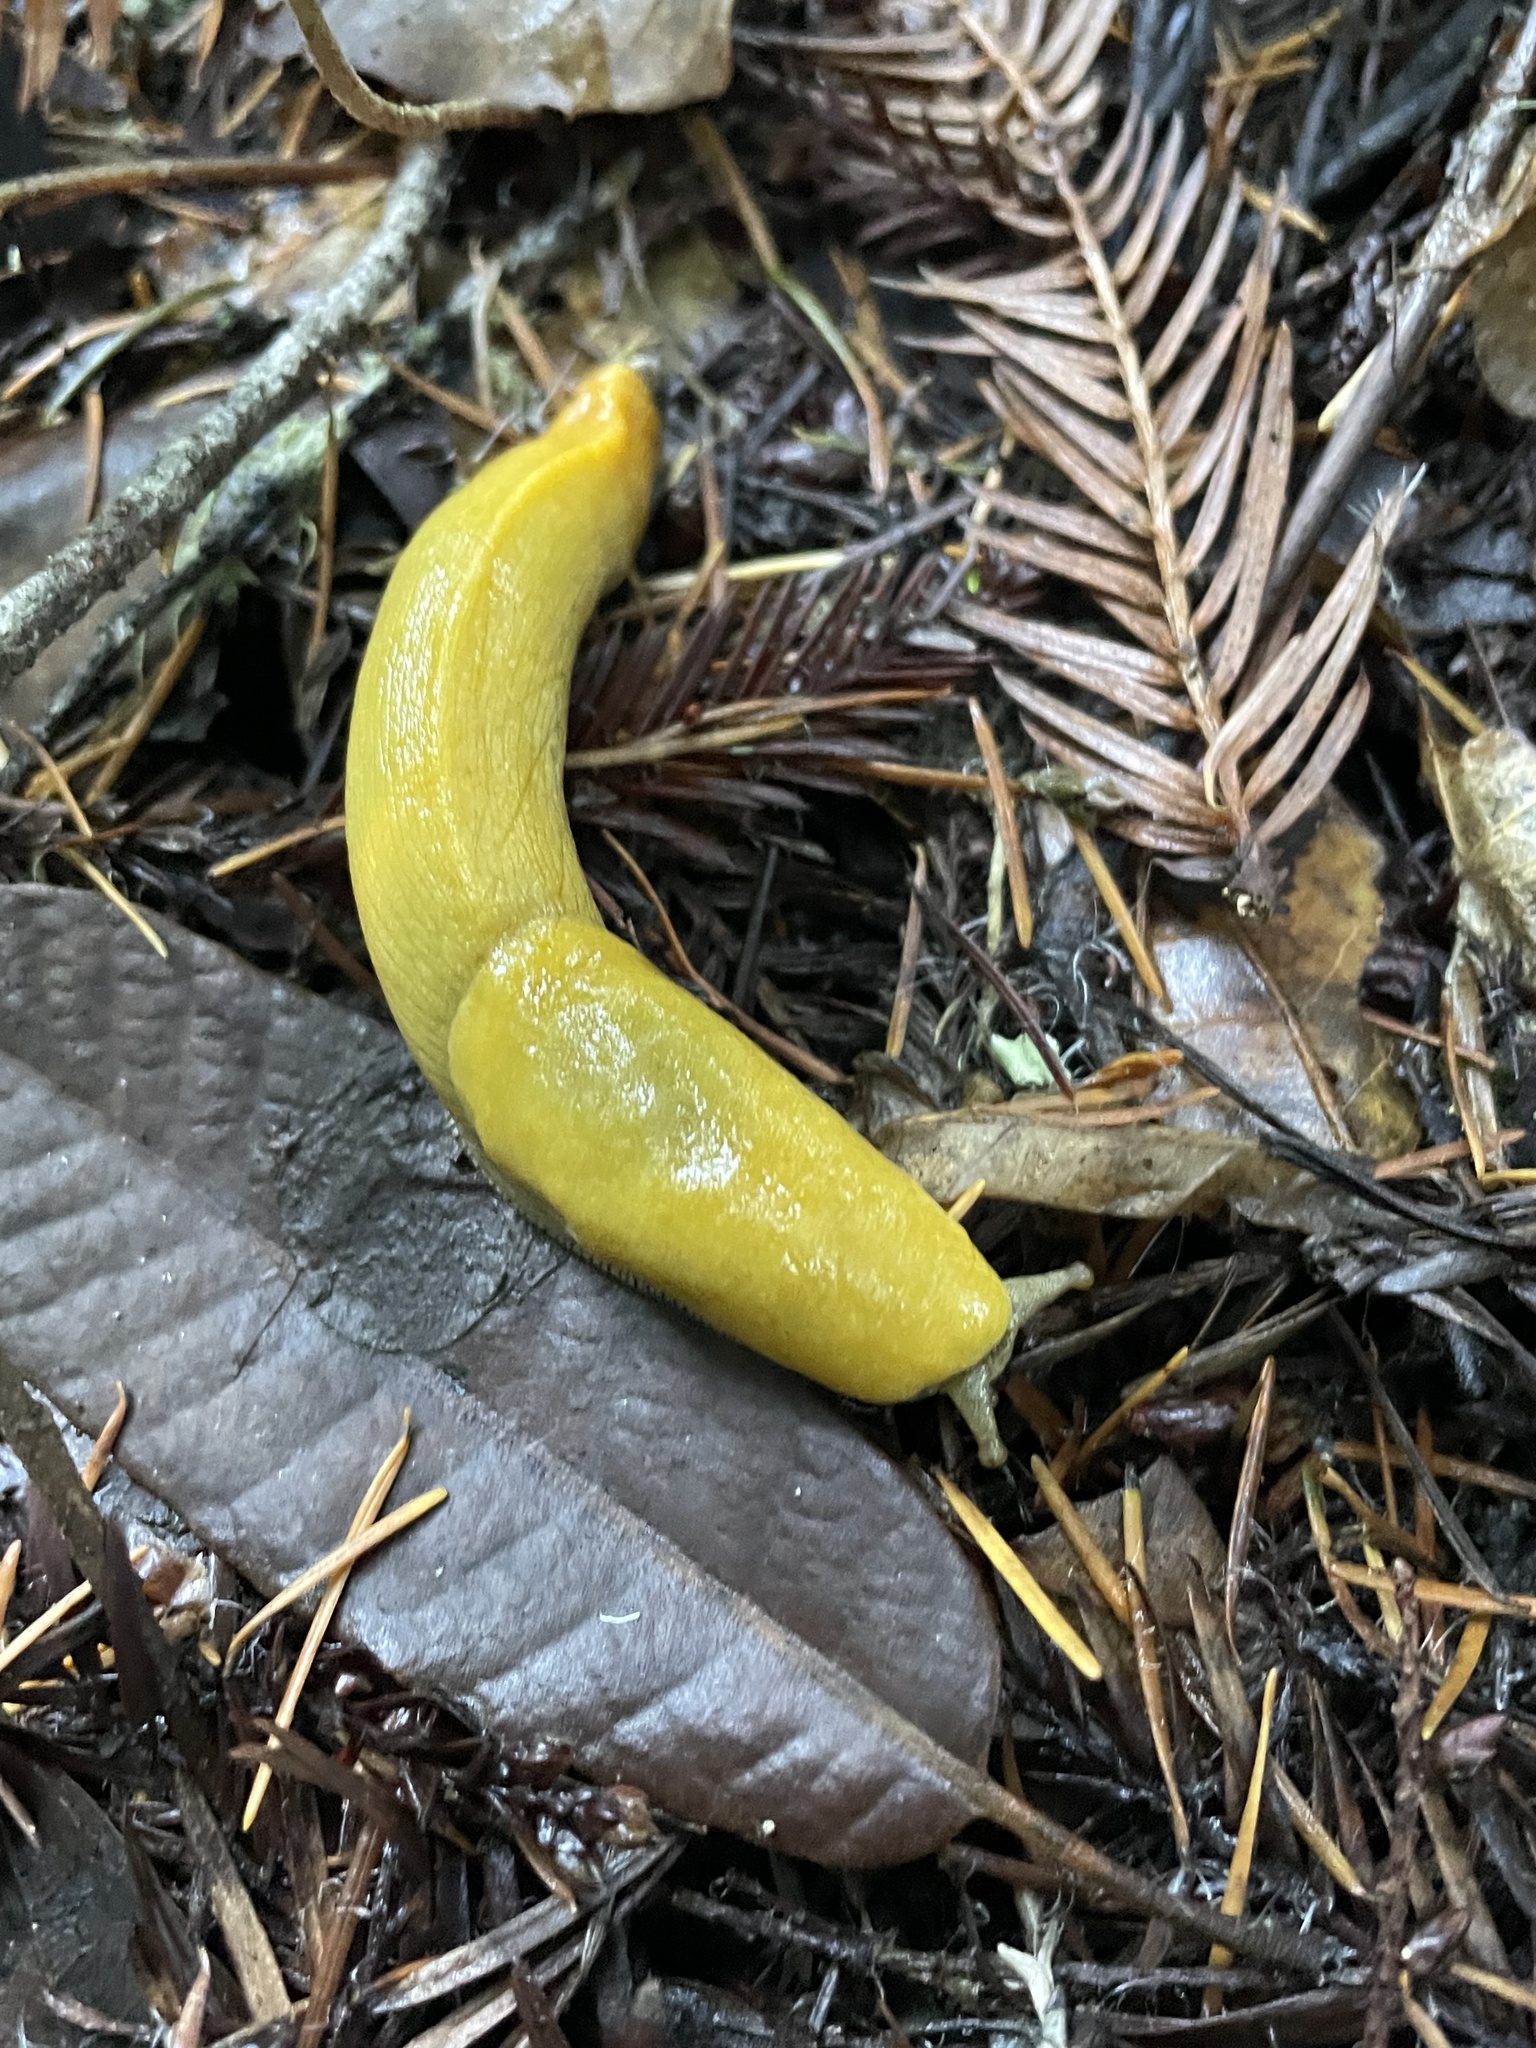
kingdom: Animalia
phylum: Mollusca
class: Gastropoda
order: Stylommatophora
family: Ariolimacidae
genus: Ariolimax
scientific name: Ariolimax dolichophallus
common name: Slender banana slug
